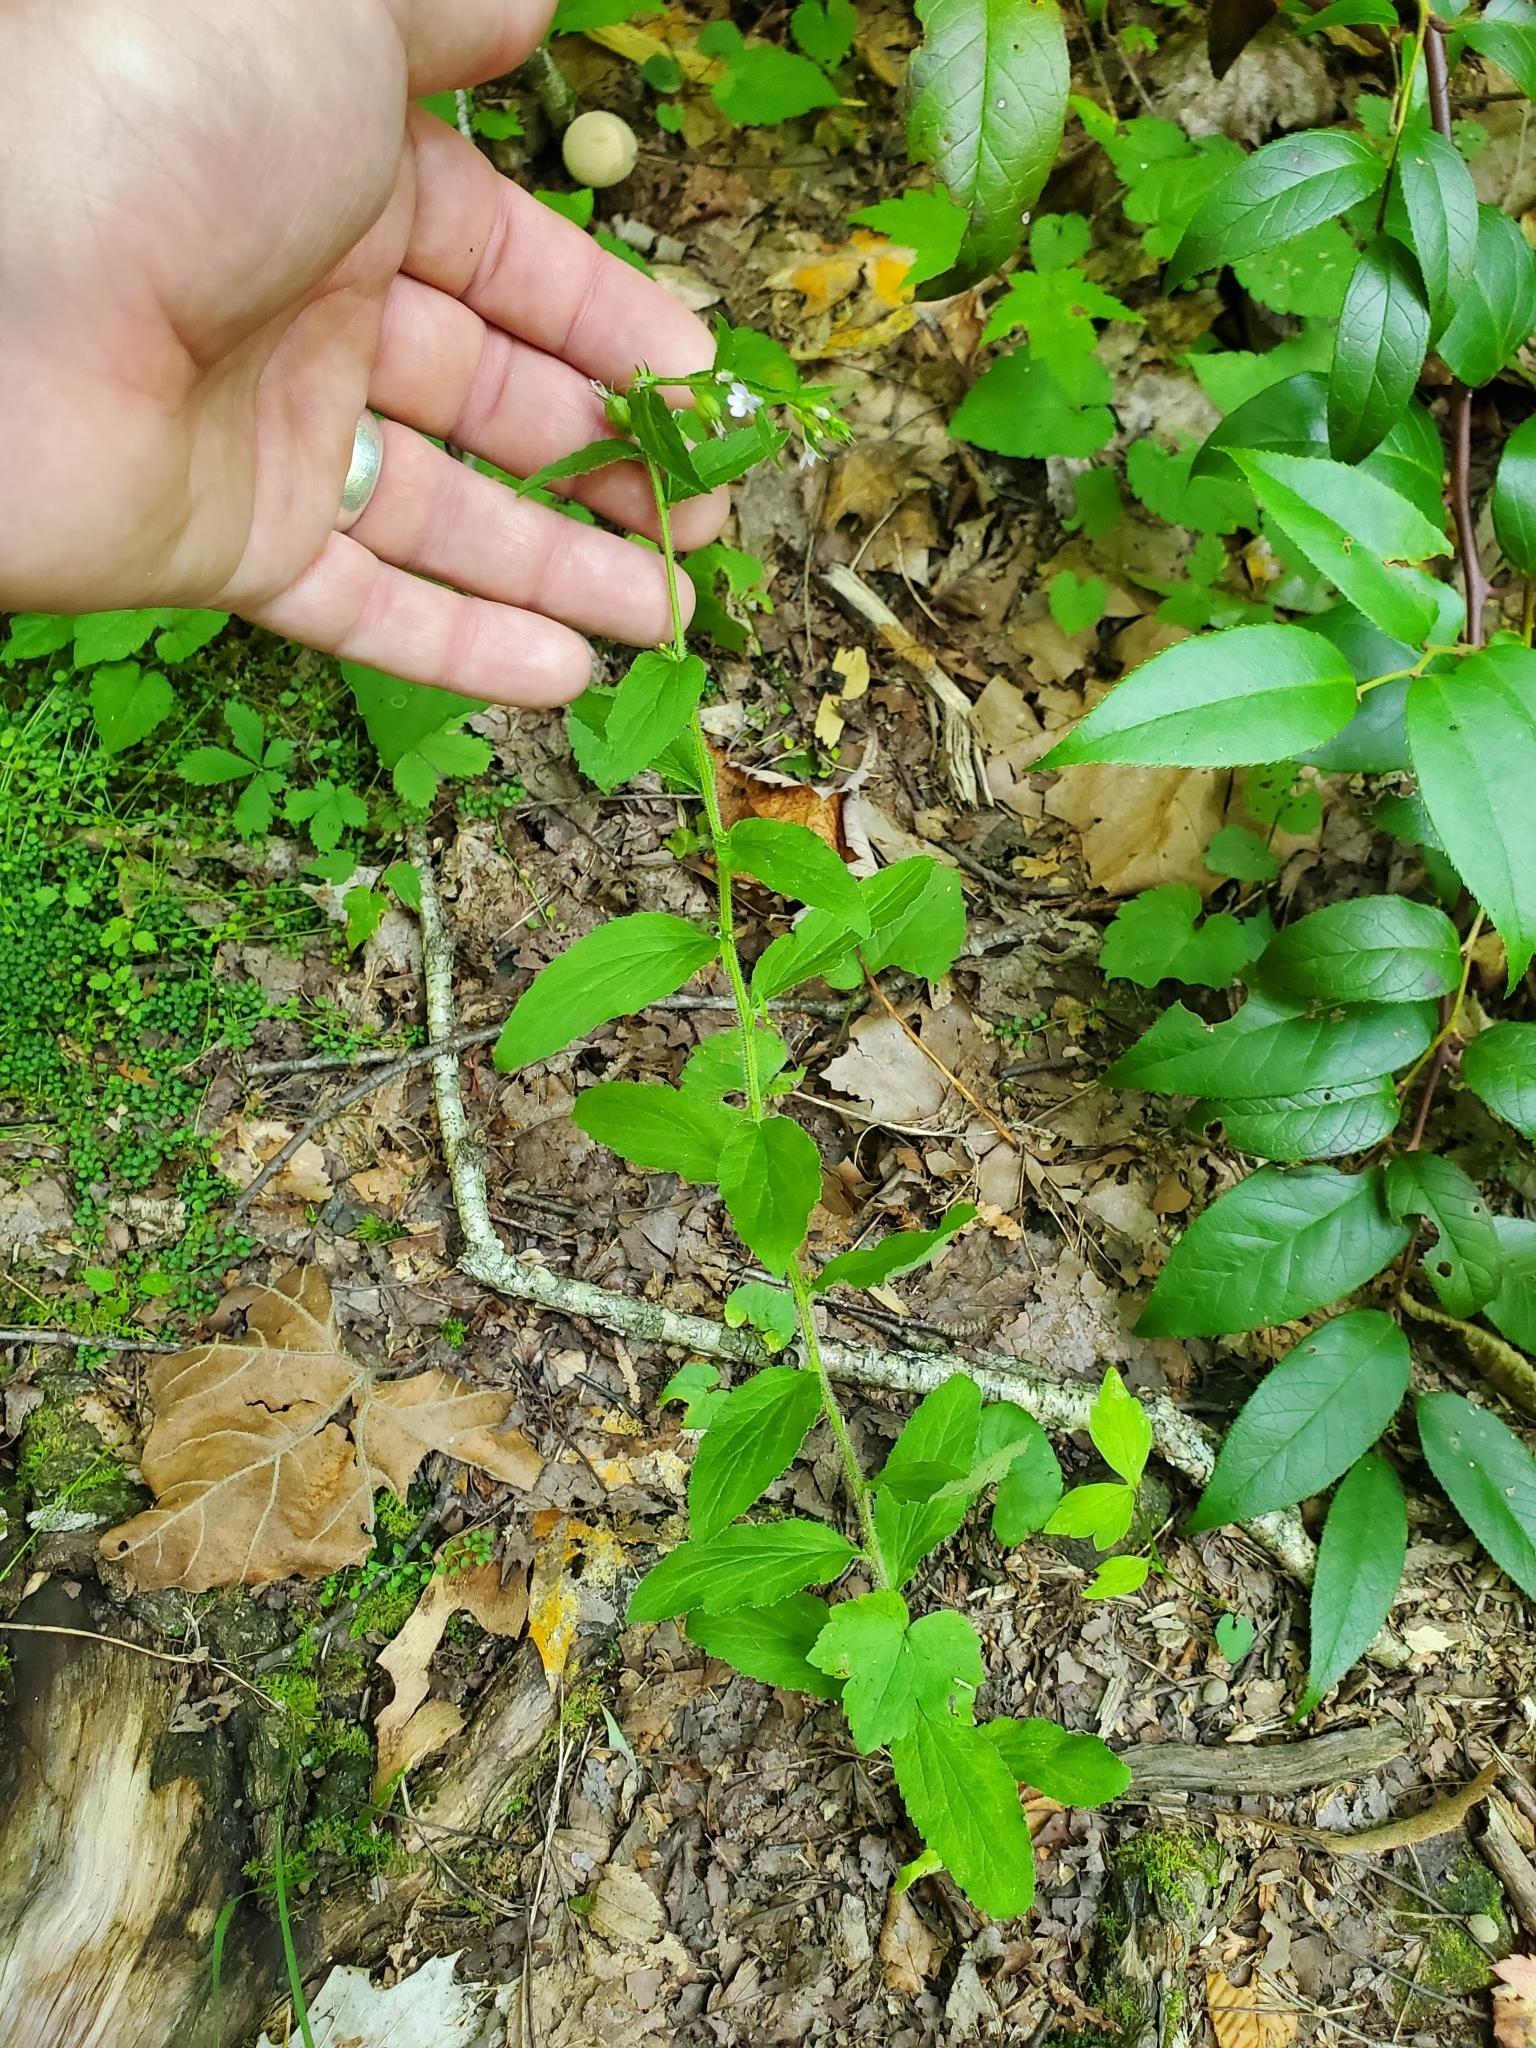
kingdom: Plantae
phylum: Tracheophyta
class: Magnoliopsida
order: Asterales
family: Campanulaceae
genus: Lobelia
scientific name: Lobelia inflata
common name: Indian tobacco
